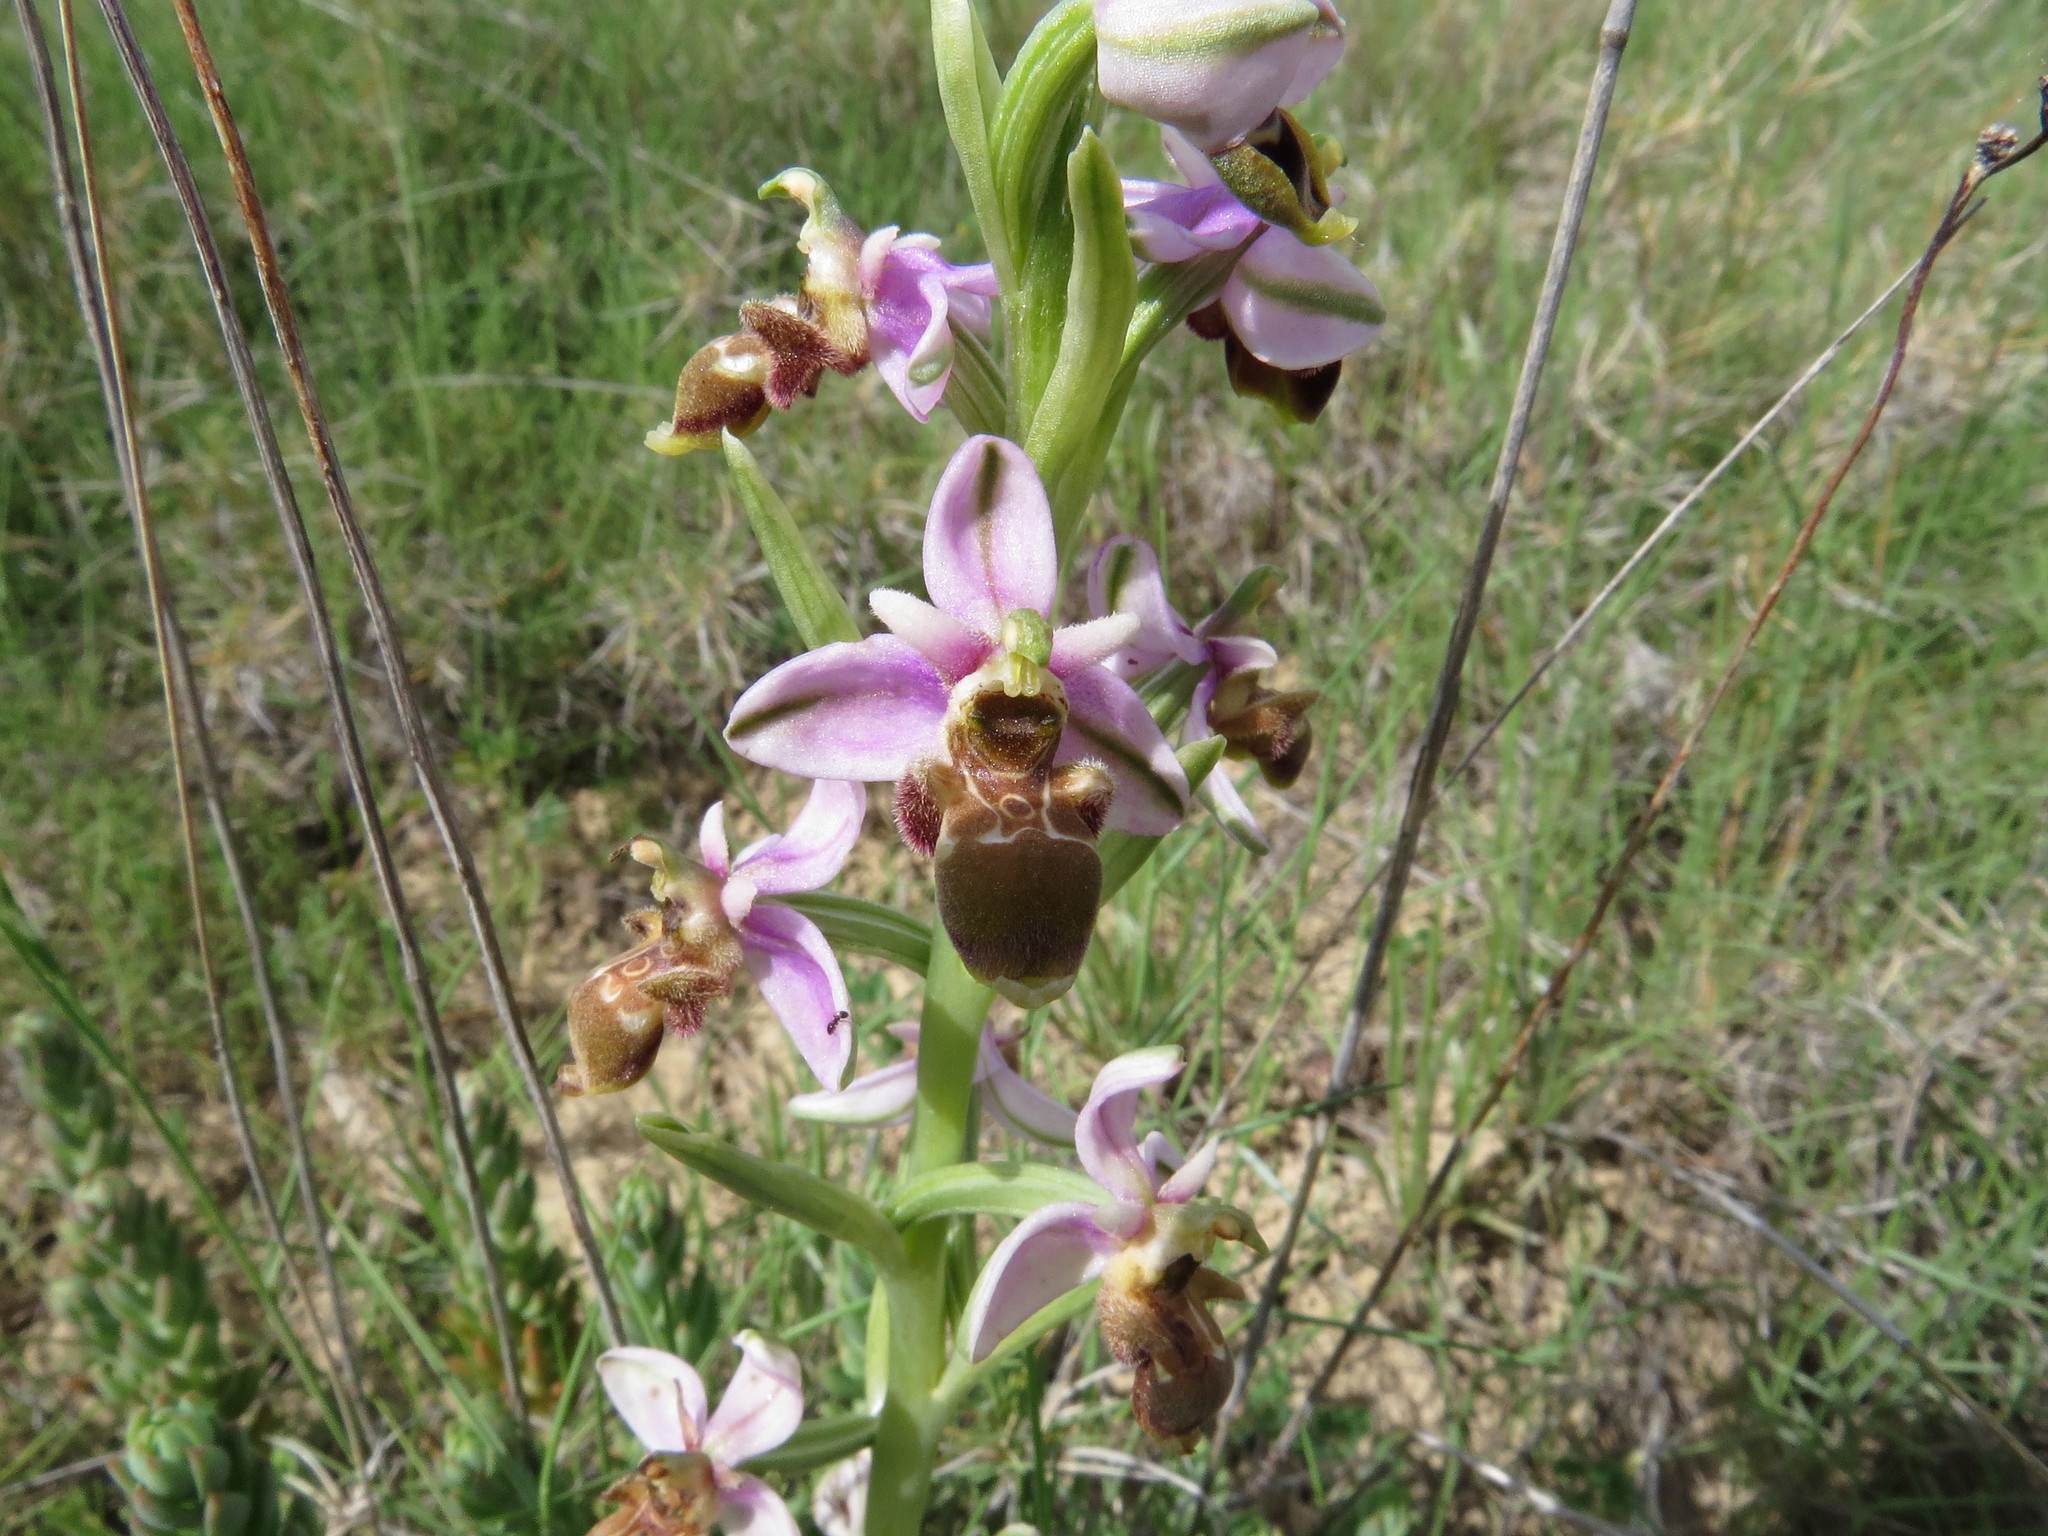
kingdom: Plantae
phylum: Tracheophyta
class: Liliopsida
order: Asparagales
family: Orchidaceae
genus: Ophrys
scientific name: Ophrys scolopax
